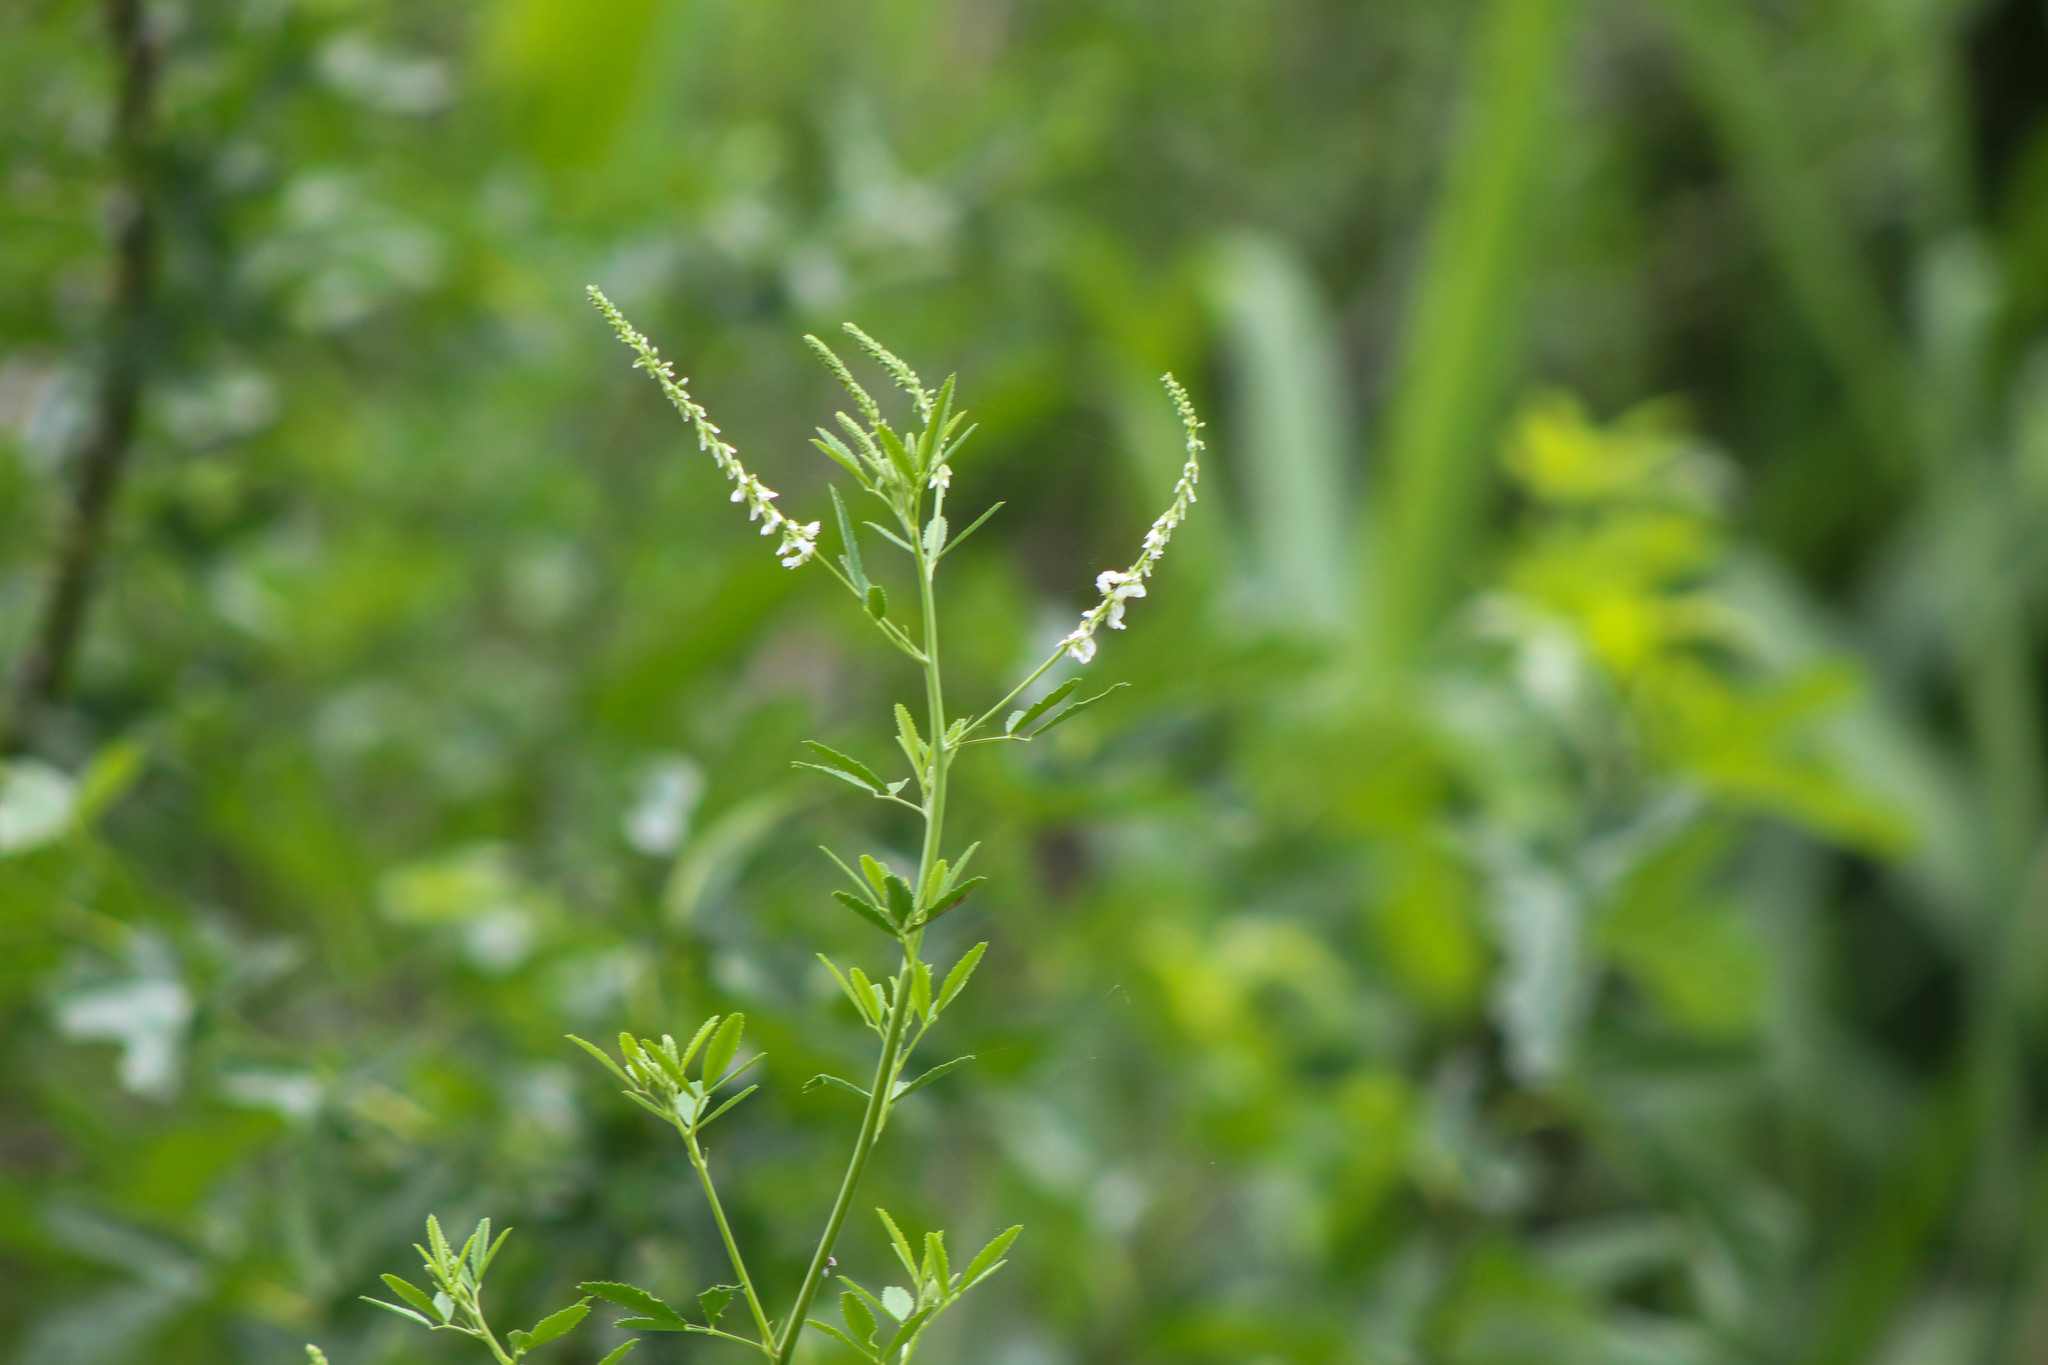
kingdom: Plantae
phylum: Tracheophyta
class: Magnoliopsida
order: Fabales
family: Fabaceae
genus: Melilotus
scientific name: Melilotus albus
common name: White melilot
